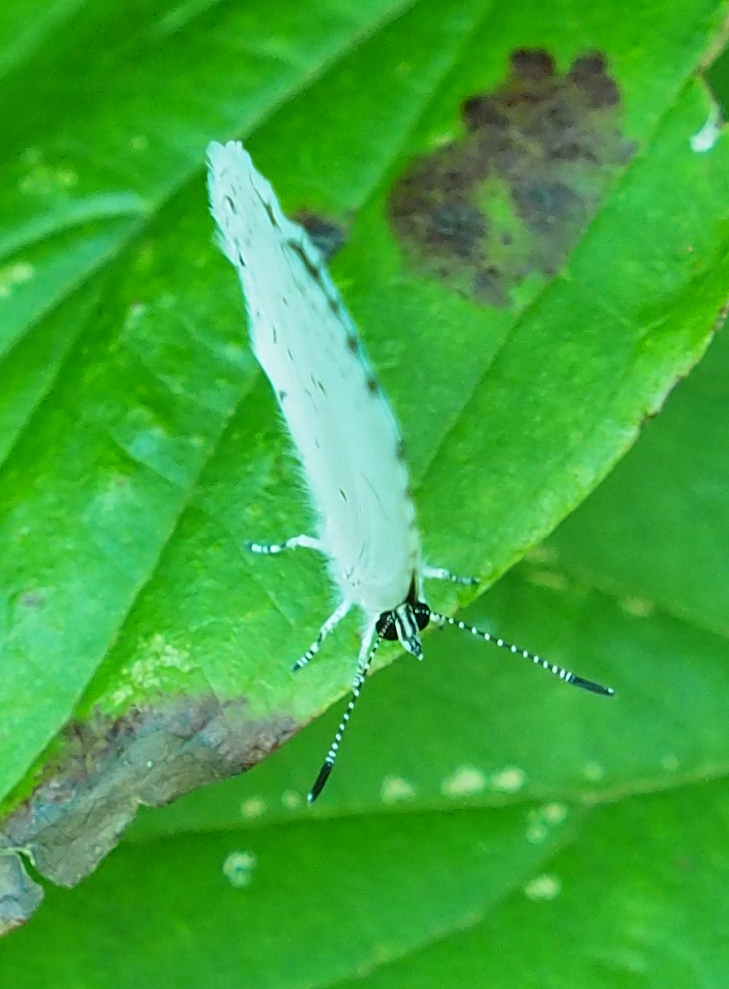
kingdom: Animalia
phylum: Arthropoda
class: Insecta
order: Lepidoptera
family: Lycaenidae
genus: Cyaniris
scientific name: Cyaniris neglecta
